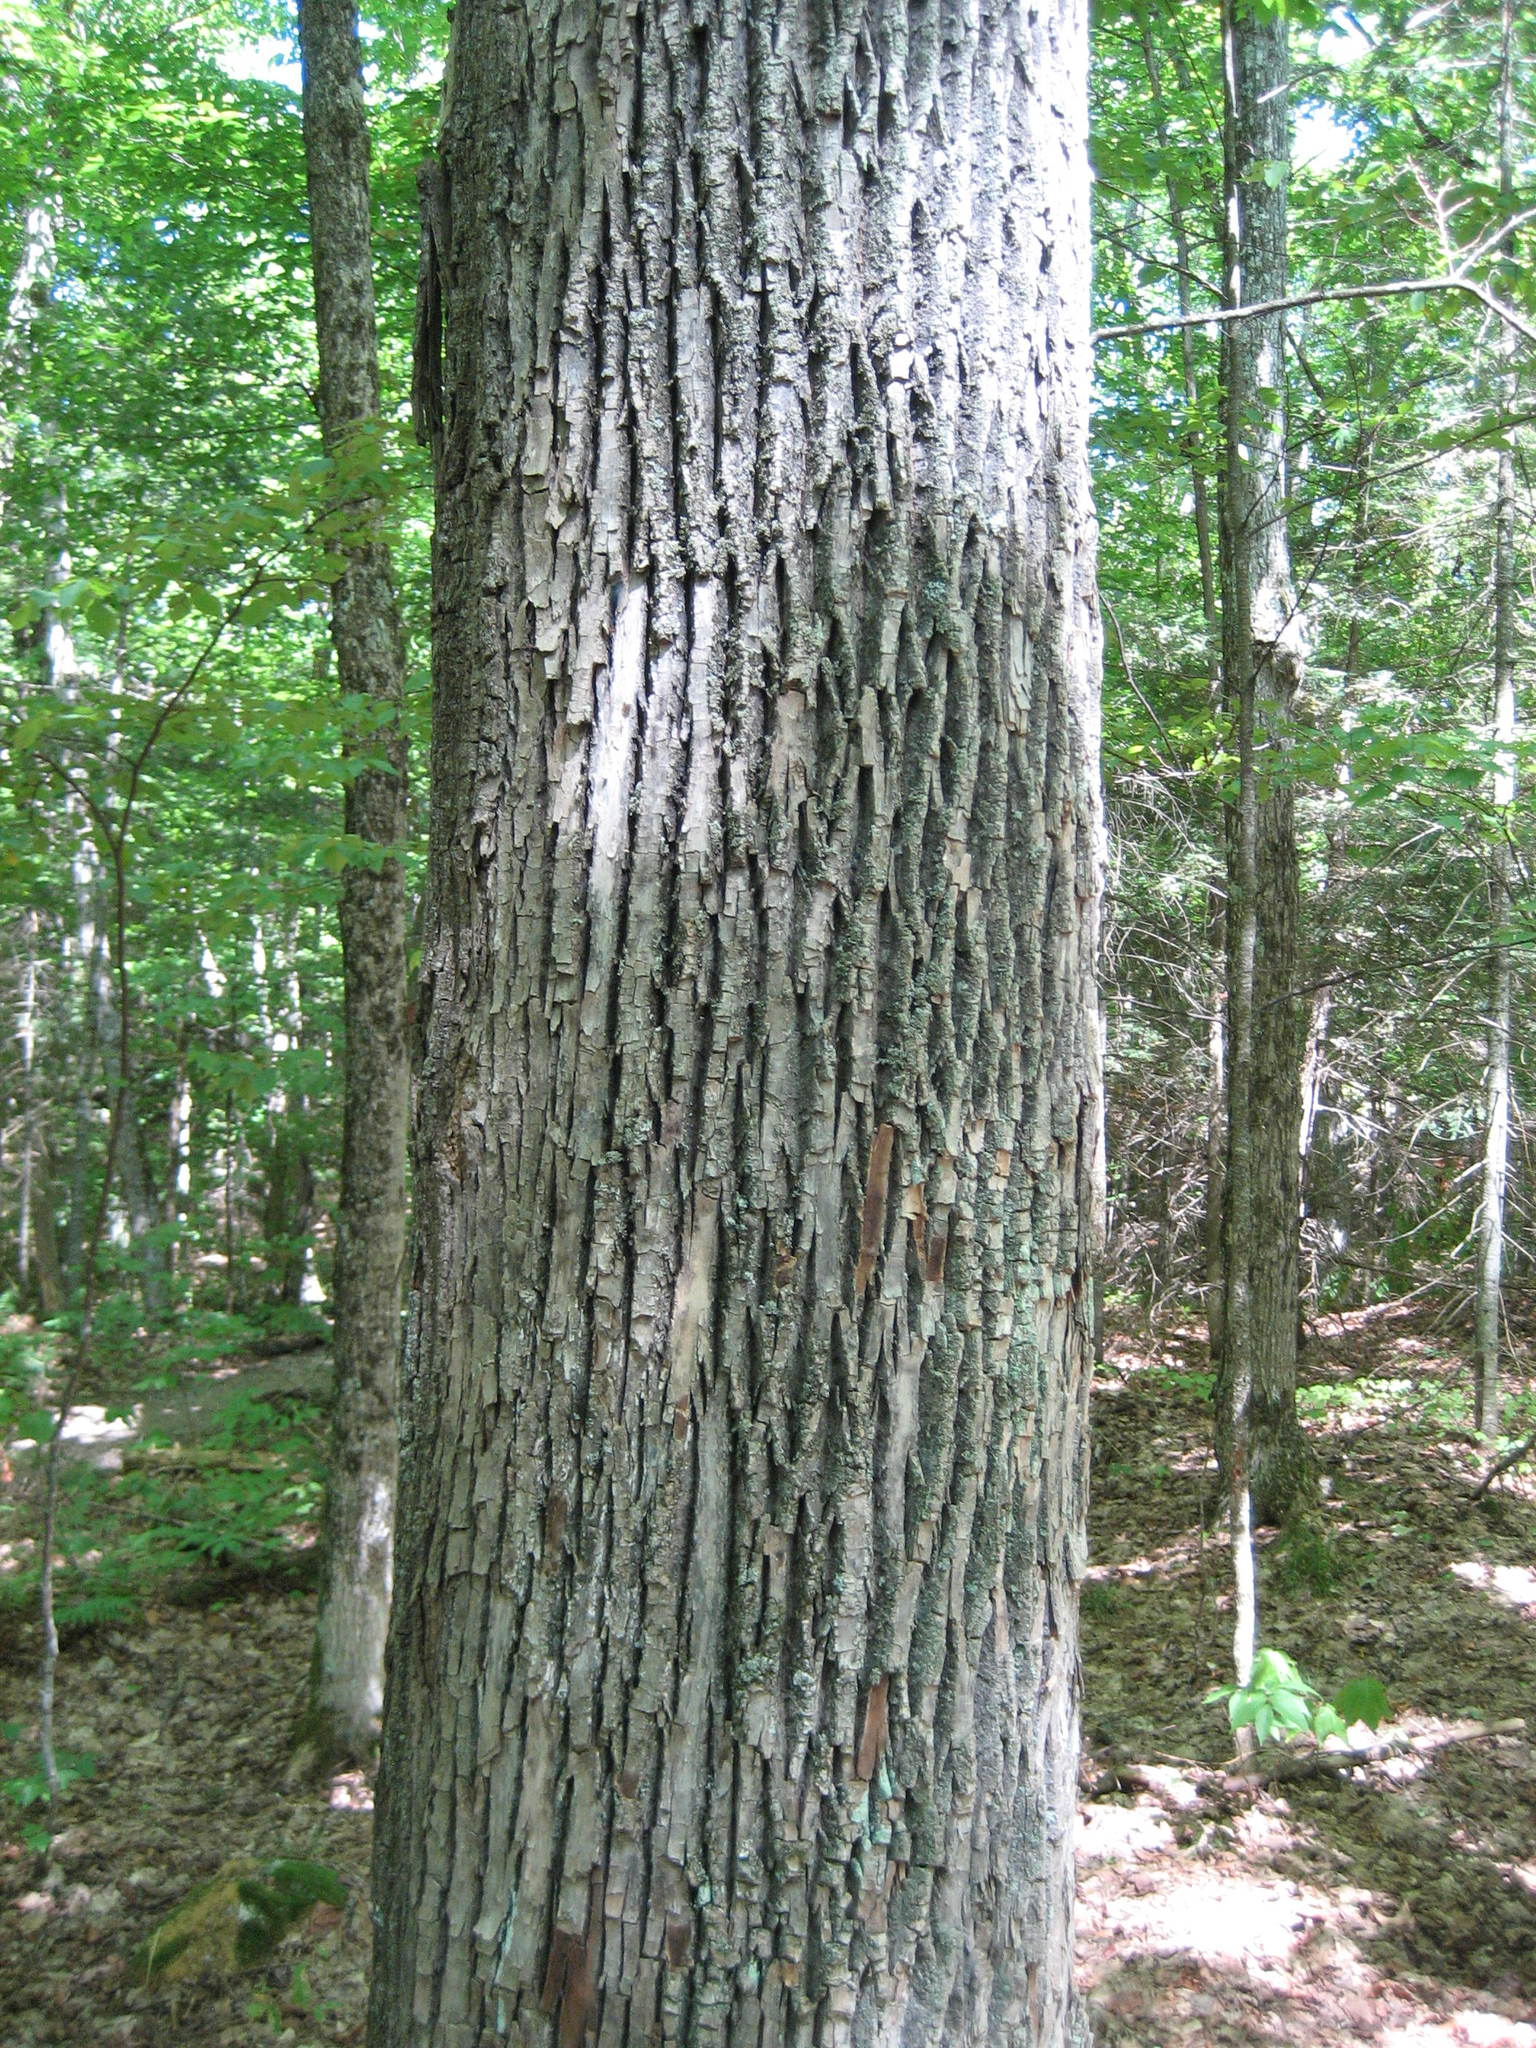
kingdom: Plantae
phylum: Tracheophyta
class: Magnoliopsida
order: Lamiales
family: Oleaceae
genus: Fraxinus
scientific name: Fraxinus
